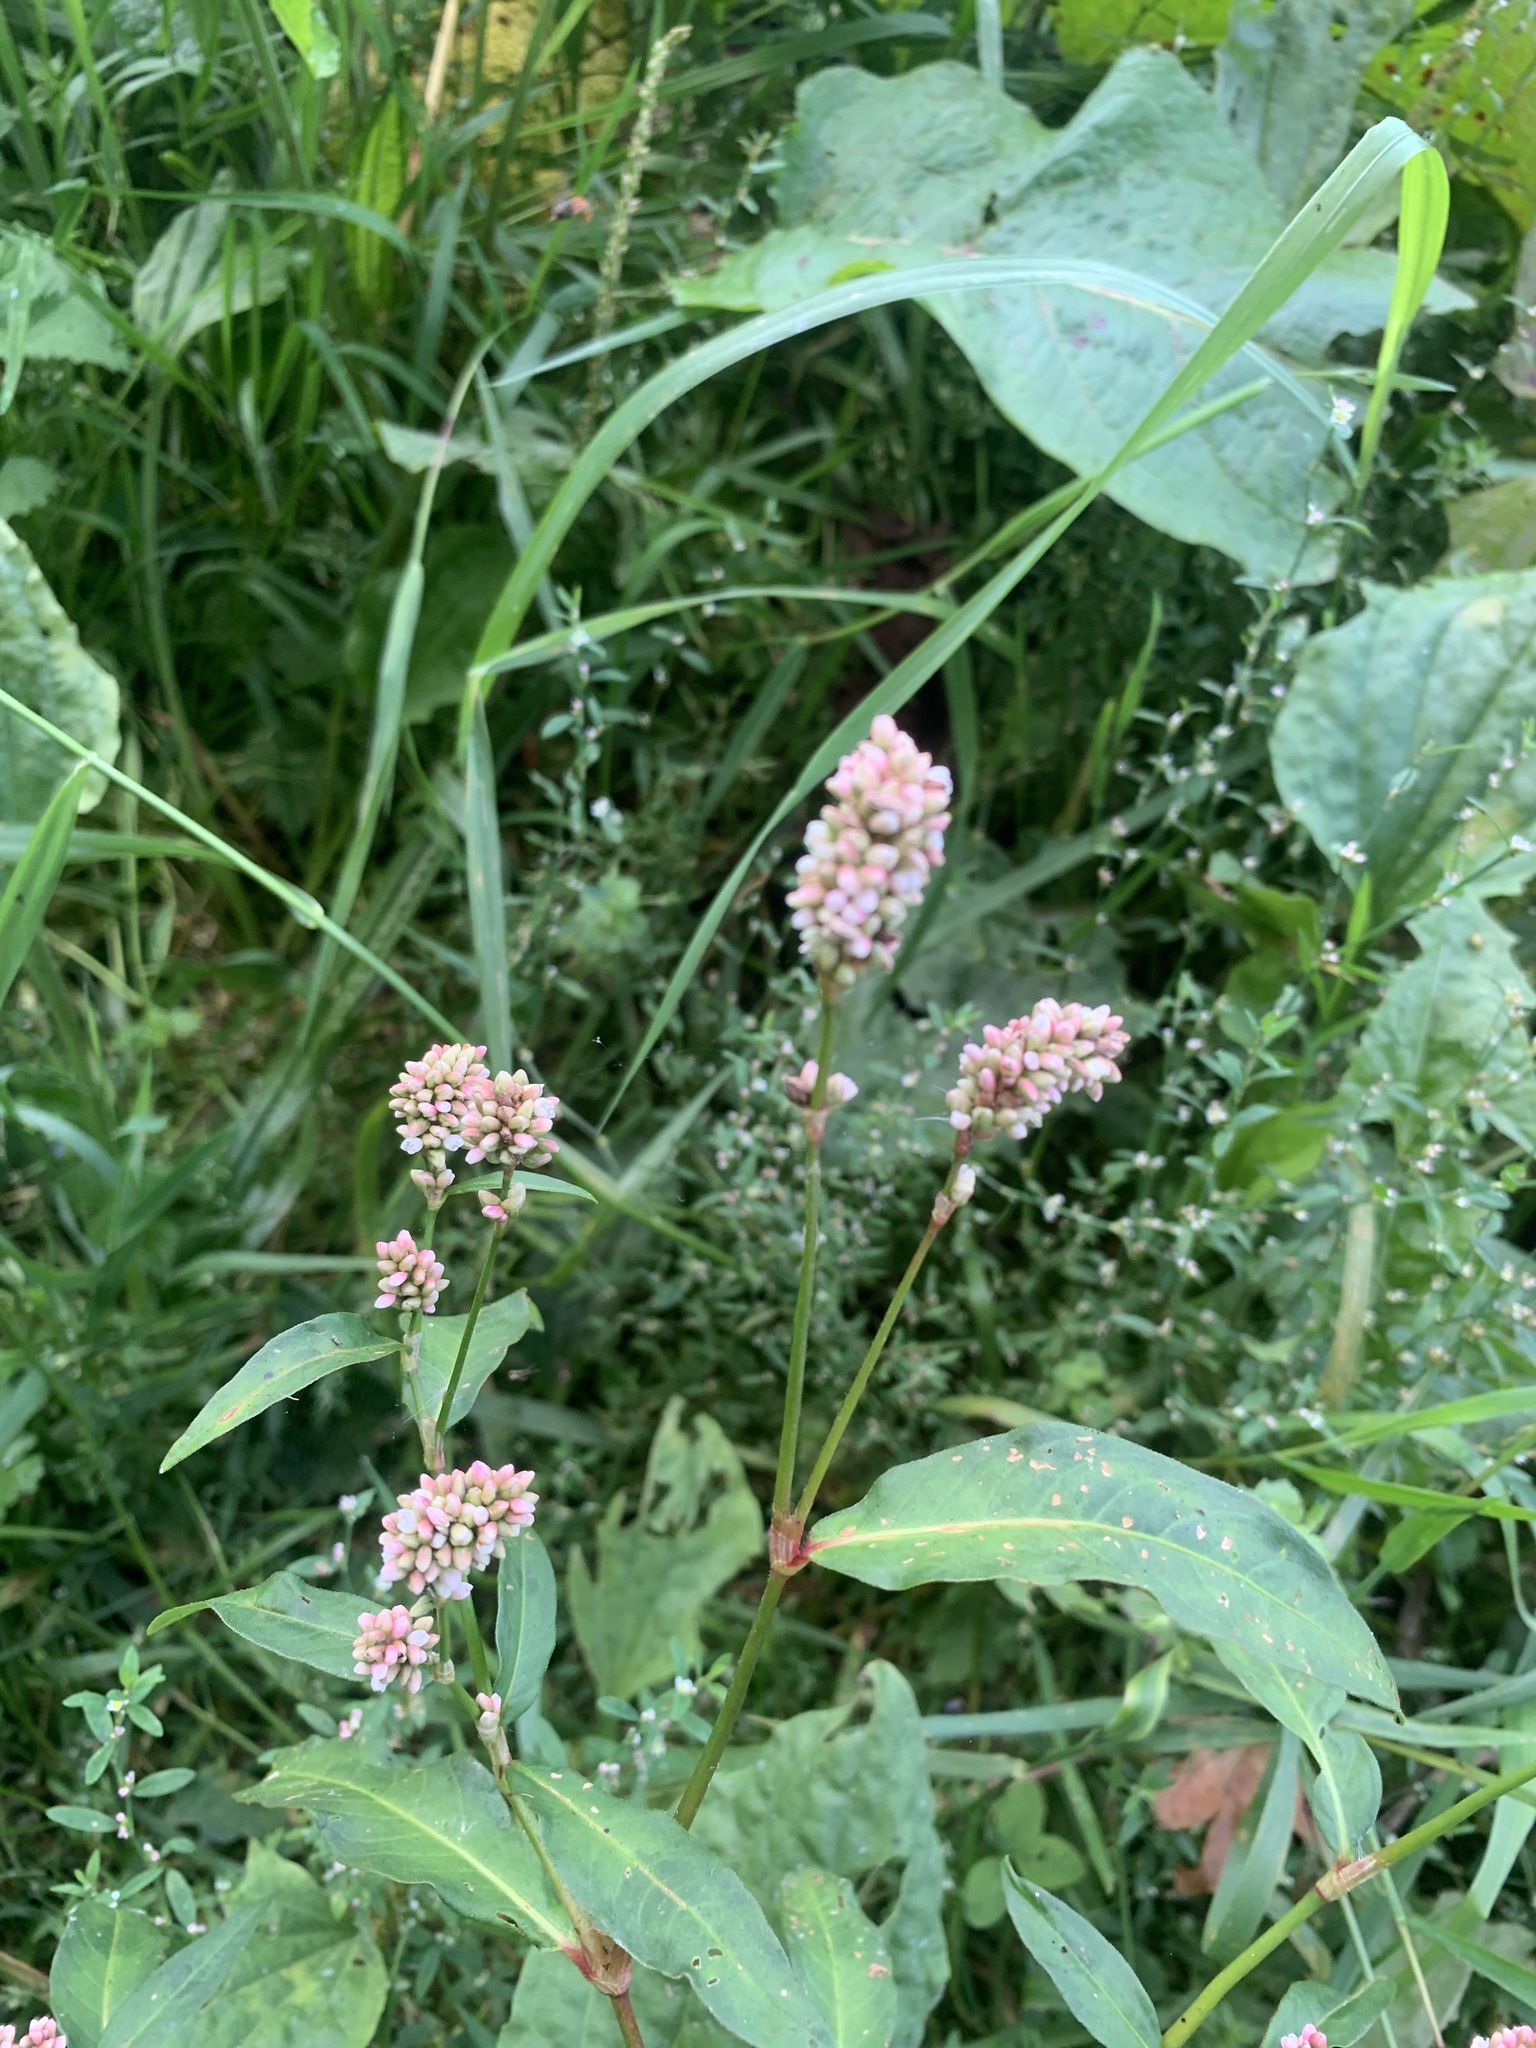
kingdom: Plantae
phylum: Tracheophyta
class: Magnoliopsida
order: Caryophyllales
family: Polygonaceae
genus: Persicaria
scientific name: Persicaria maculosa
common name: Redshank
